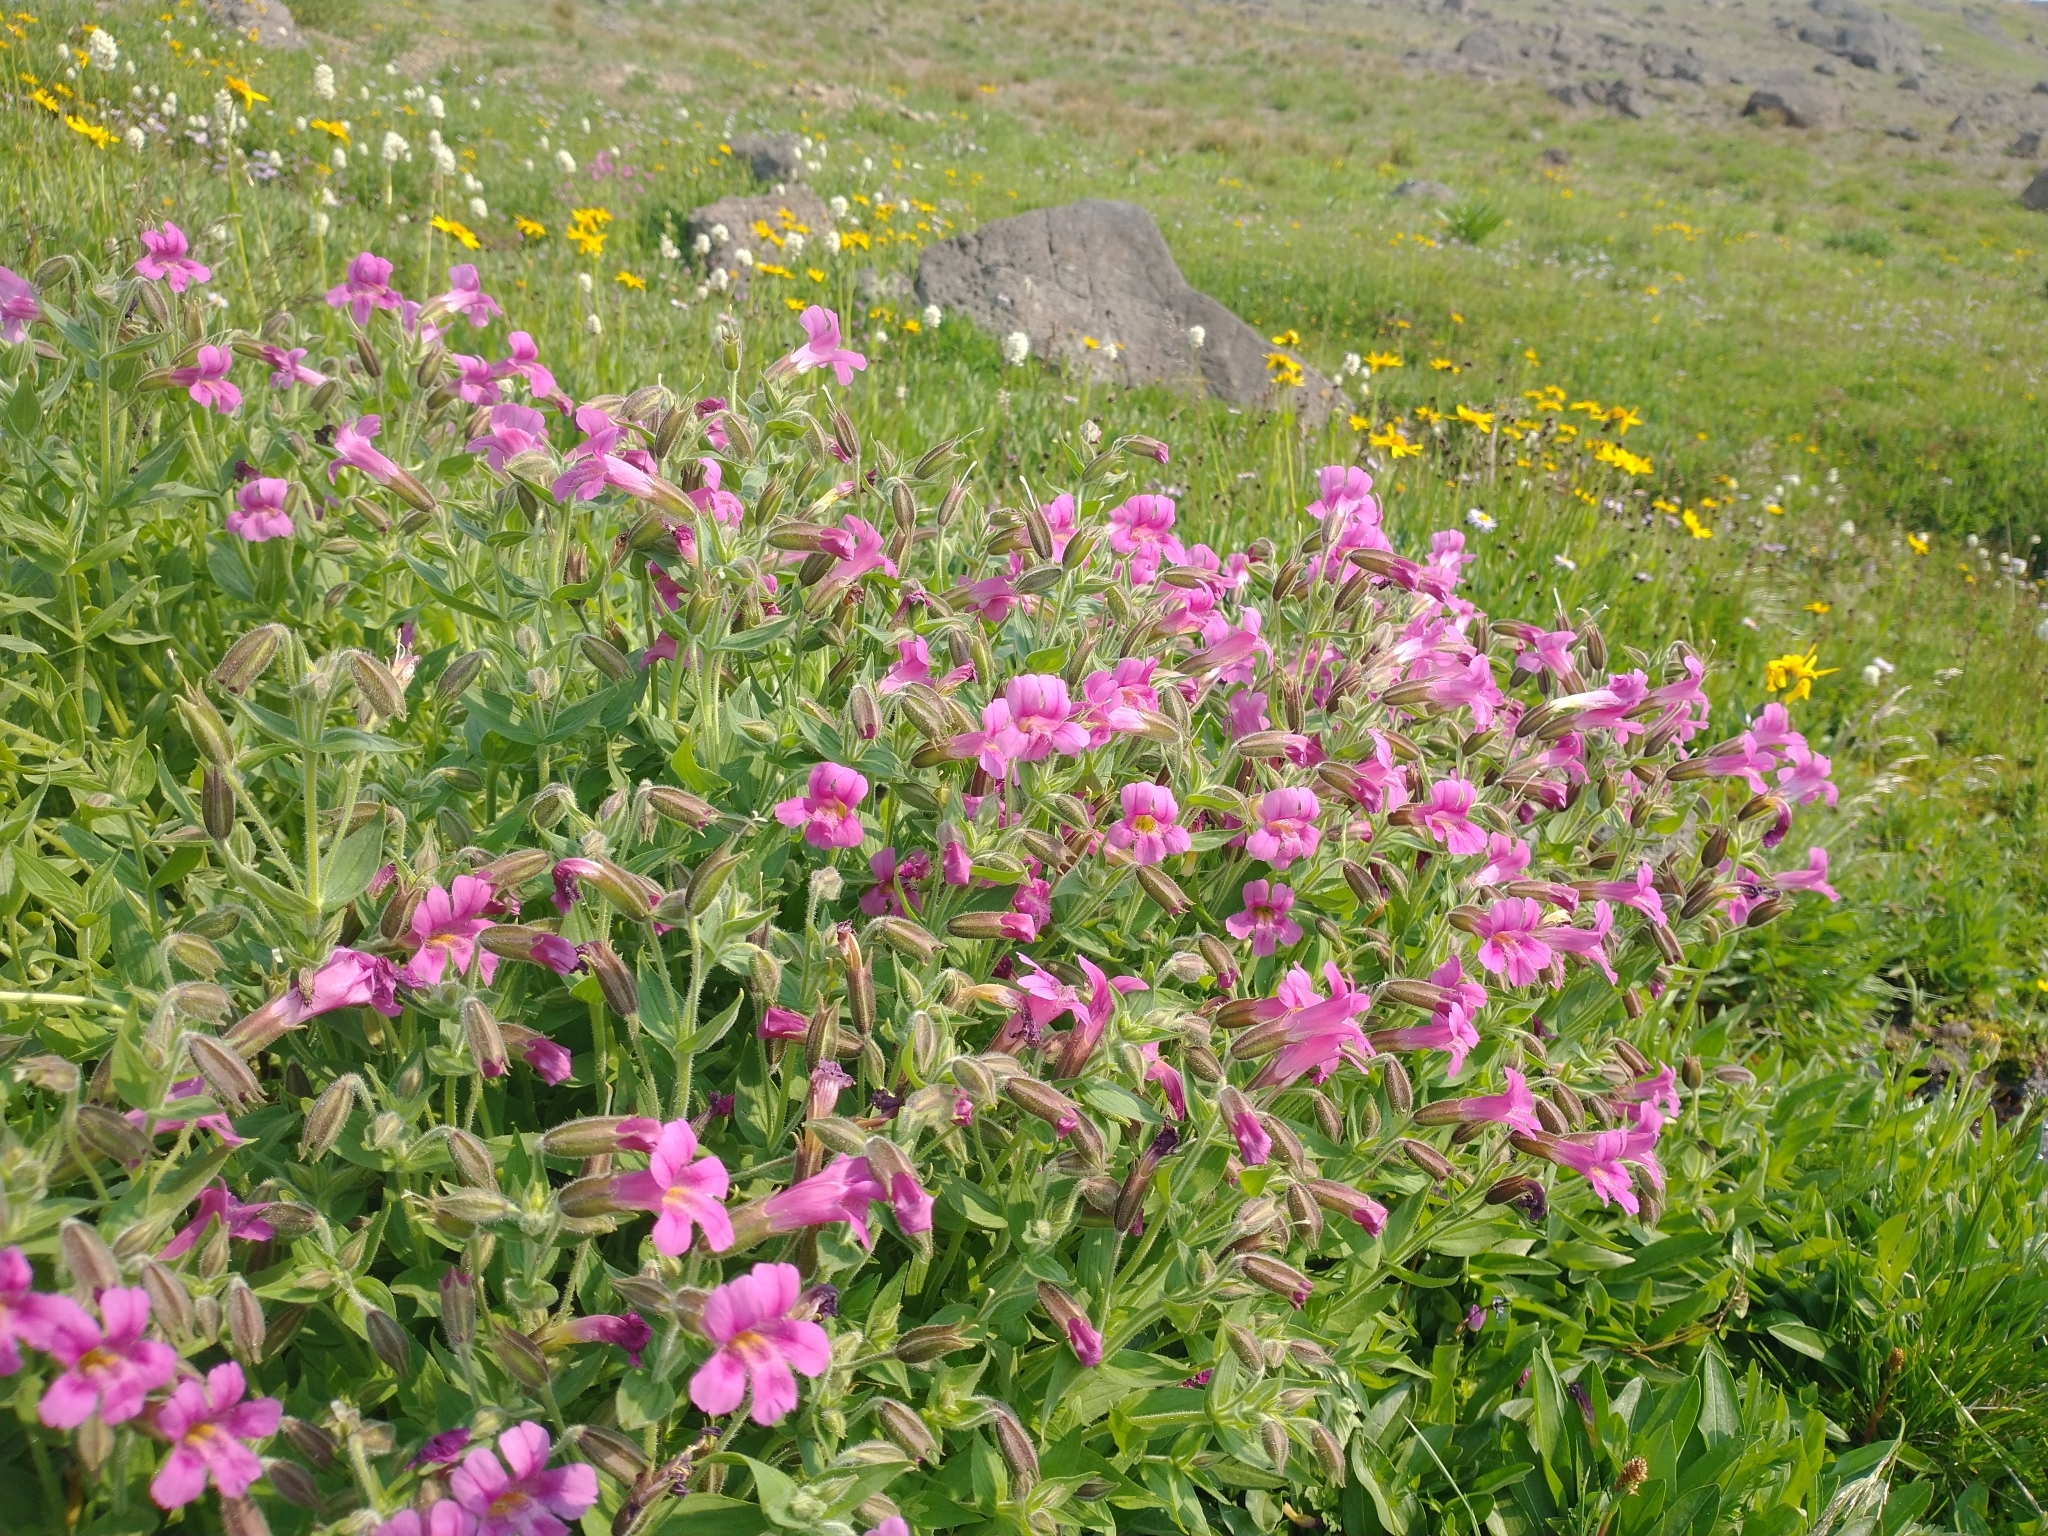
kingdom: Plantae
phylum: Tracheophyta
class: Magnoliopsida
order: Lamiales
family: Phrymaceae
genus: Erythranthe
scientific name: Erythranthe lewisii
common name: Lewis's monkey-flower
